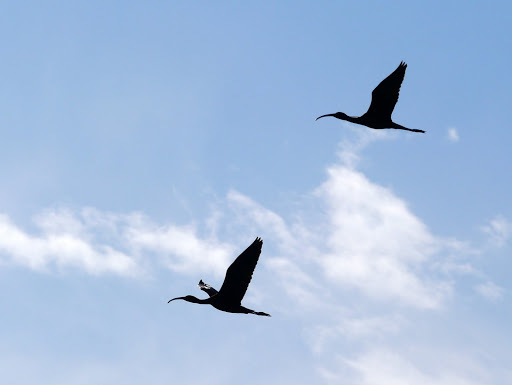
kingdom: Animalia
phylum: Chordata
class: Aves
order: Pelecaniformes
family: Threskiornithidae
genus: Plegadis
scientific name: Plegadis falcinellus
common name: Glossy ibis
